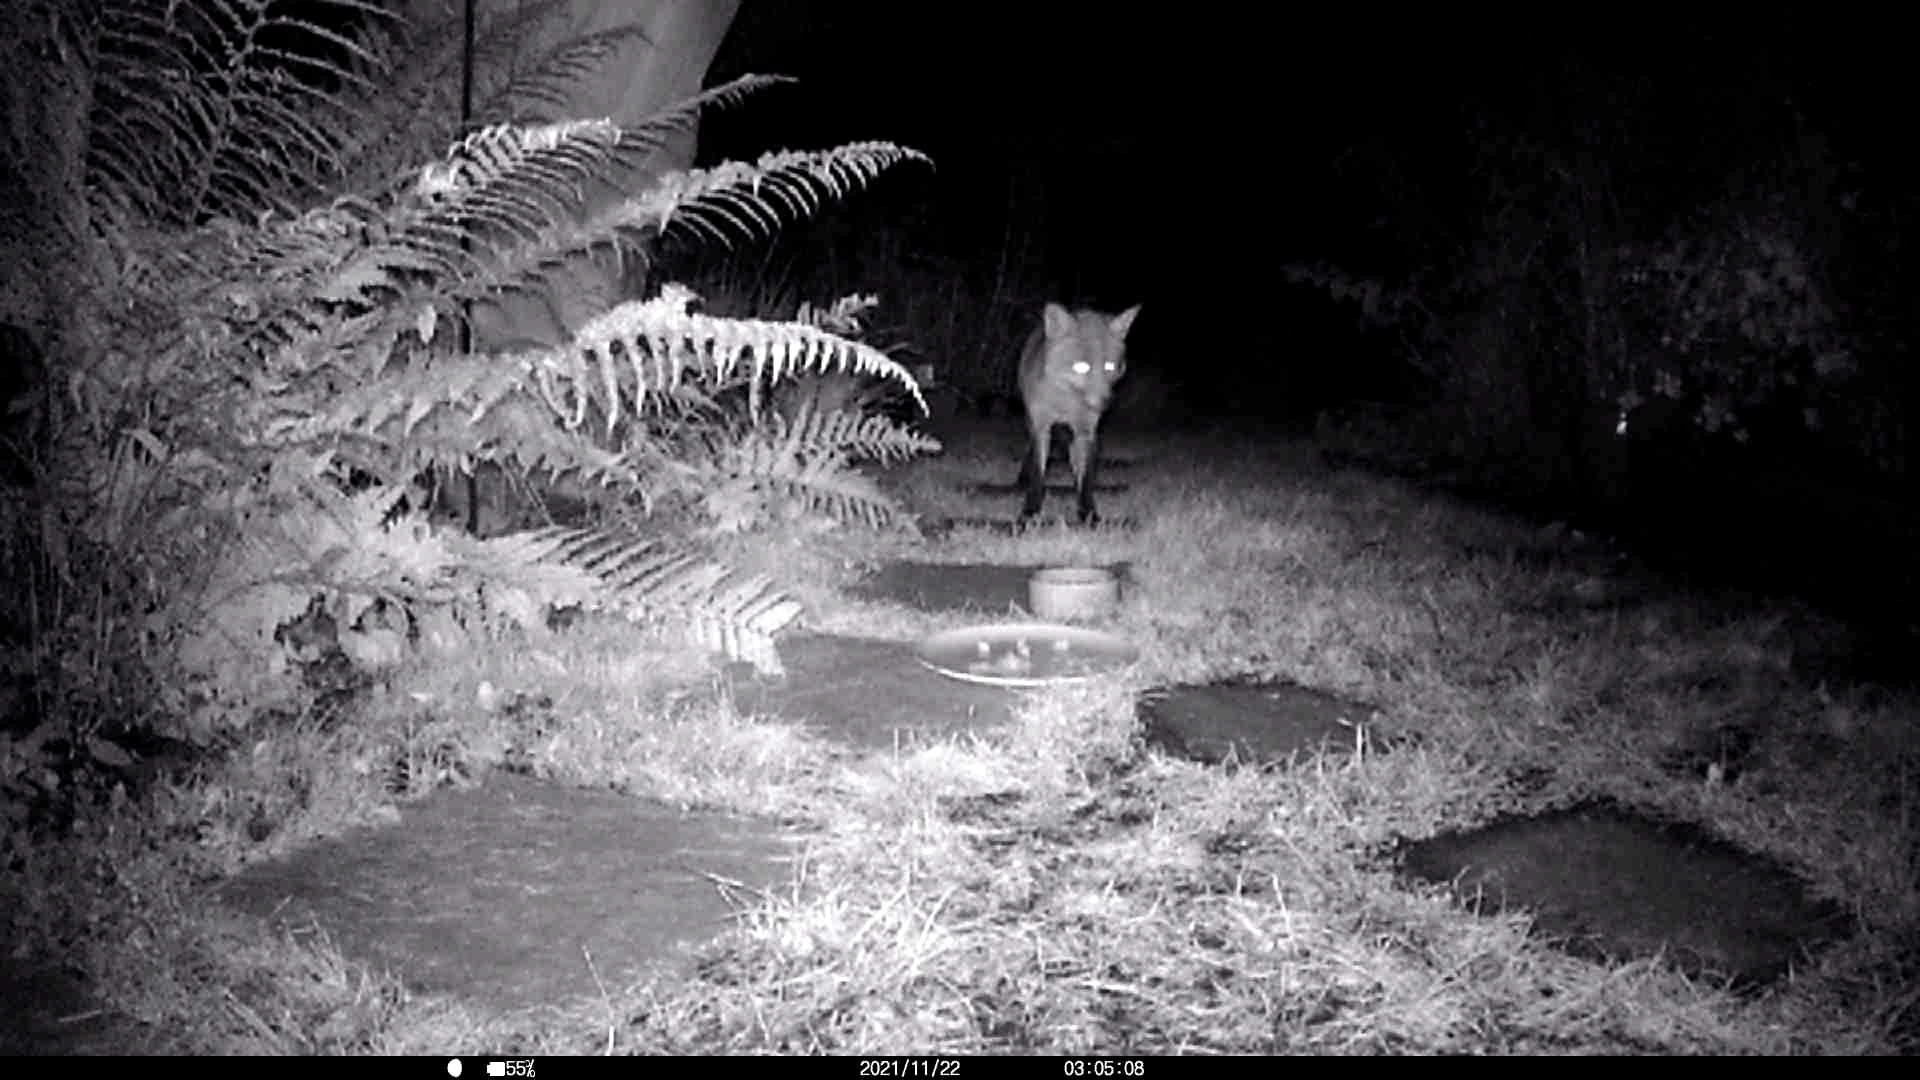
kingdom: Animalia
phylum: Chordata
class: Mammalia
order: Carnivora
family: Canidae
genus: Vulpes
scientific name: Vulpes vulpes
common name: Red fox
